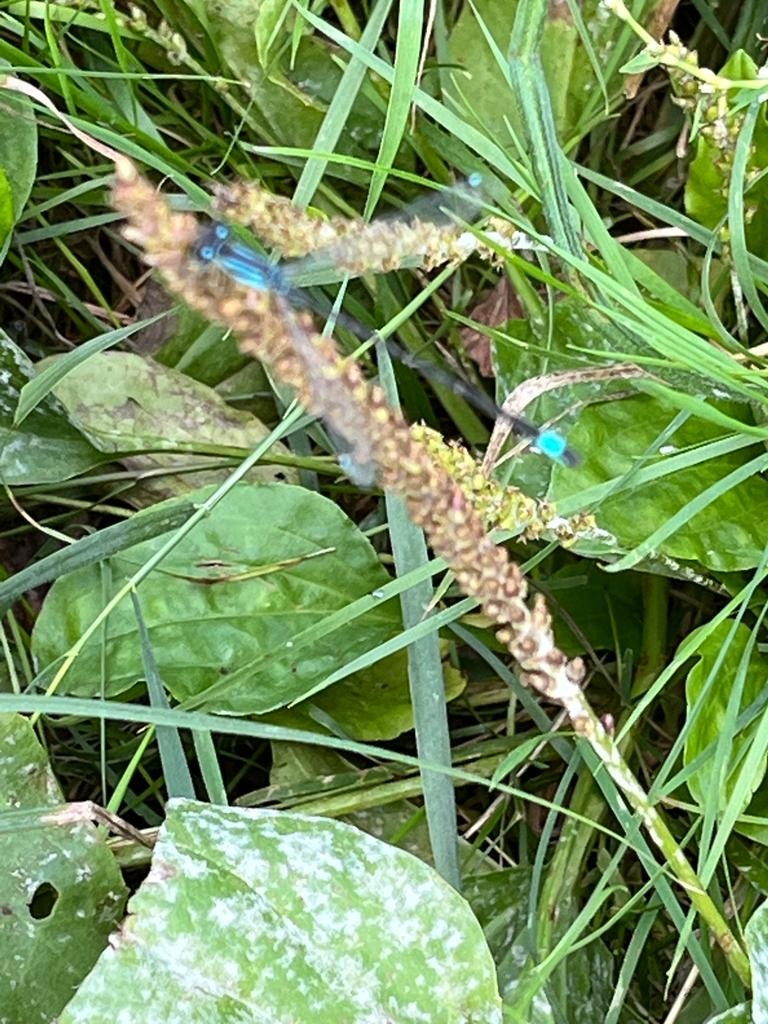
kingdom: Animalia
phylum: Arthropoda
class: Insecta
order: Odonata
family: Coenagrionidae
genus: Ischnura
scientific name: Ischnura elegans
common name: Blue-tailed damselfly
